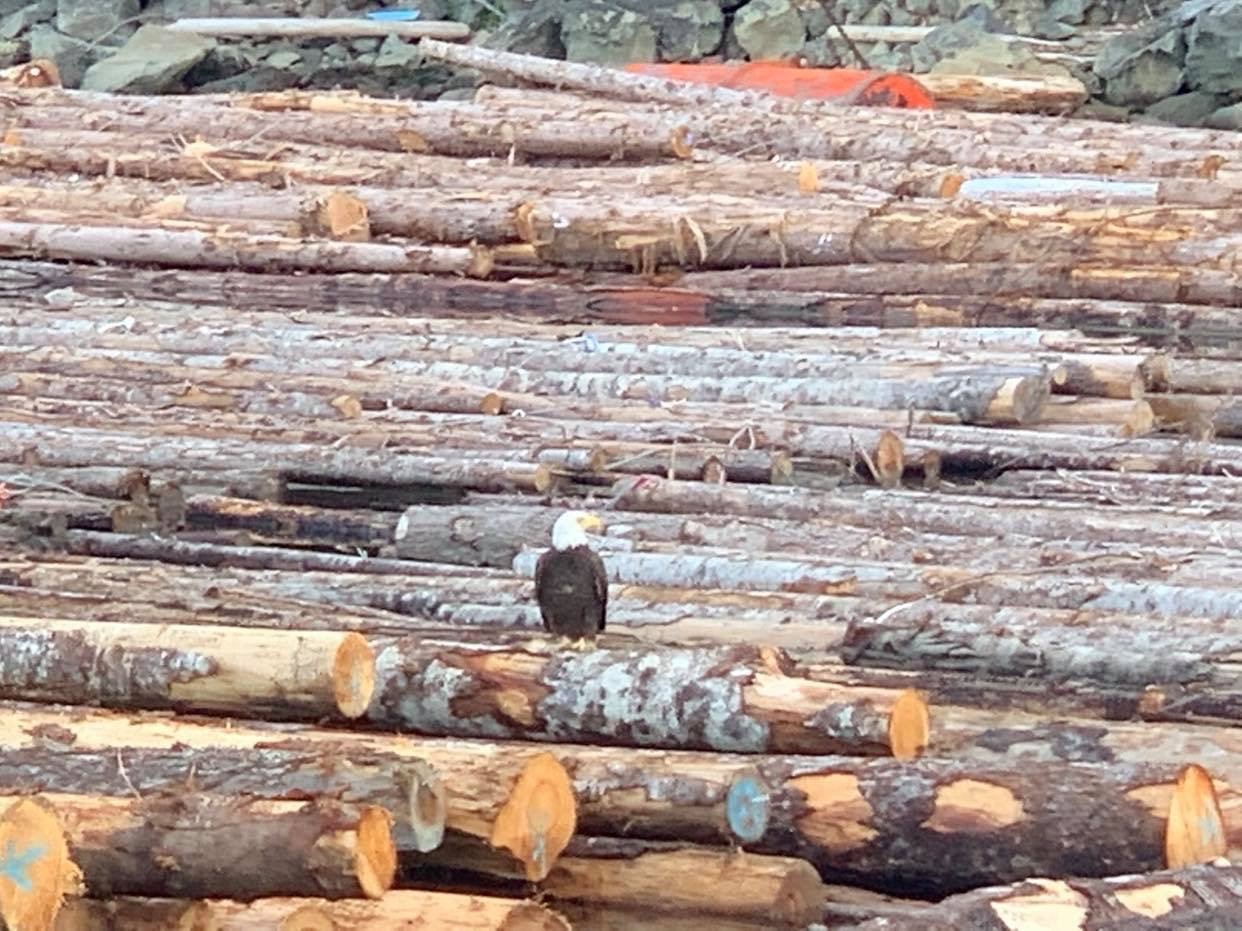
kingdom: Animalia
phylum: Chordata
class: Aves
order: Accipitriformes
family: Accipitridae
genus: Haliaeetus
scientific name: Haliaeetus leucocephalus
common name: Bald eagle
